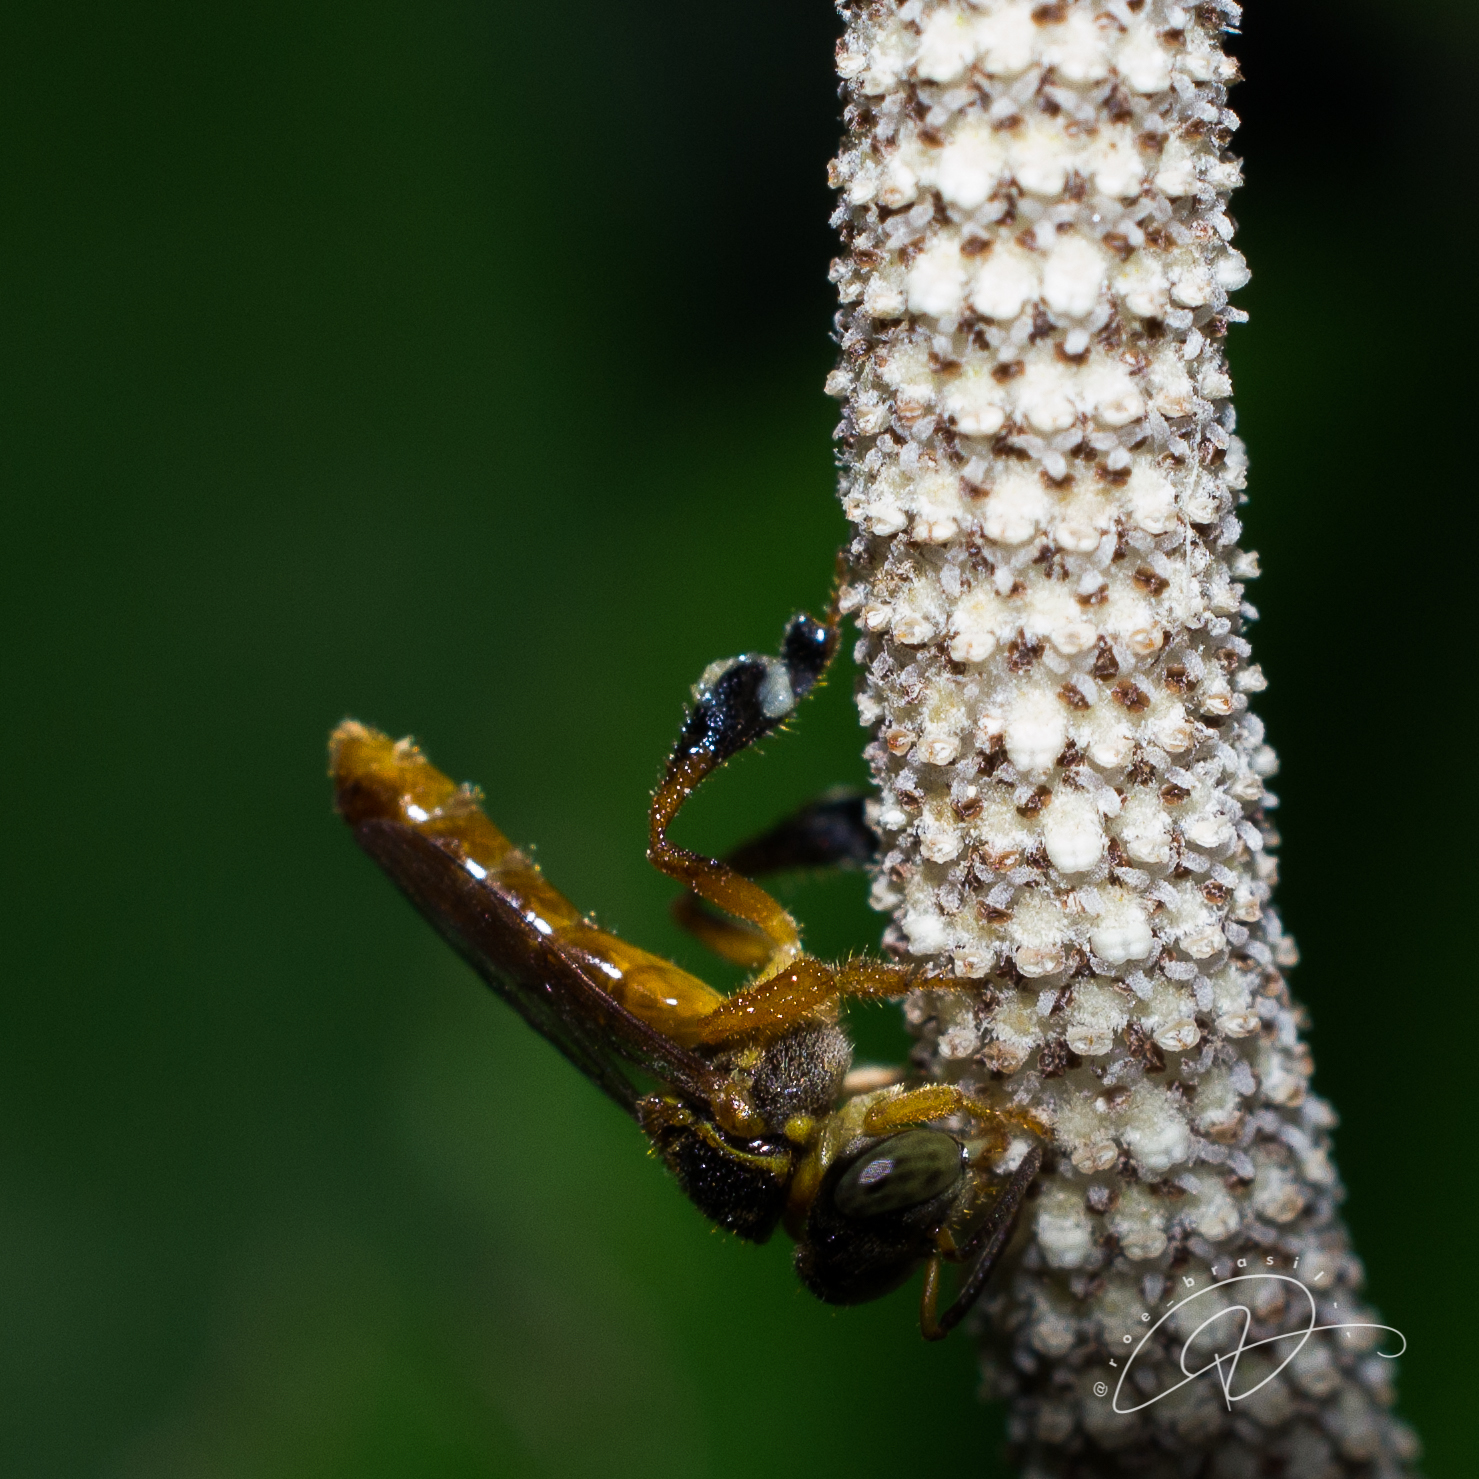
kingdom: Animalia
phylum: Arthropoda
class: Insecta
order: Hymenoptera
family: Apidae
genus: Tetragonisca
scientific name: Tetragonisca angustula
